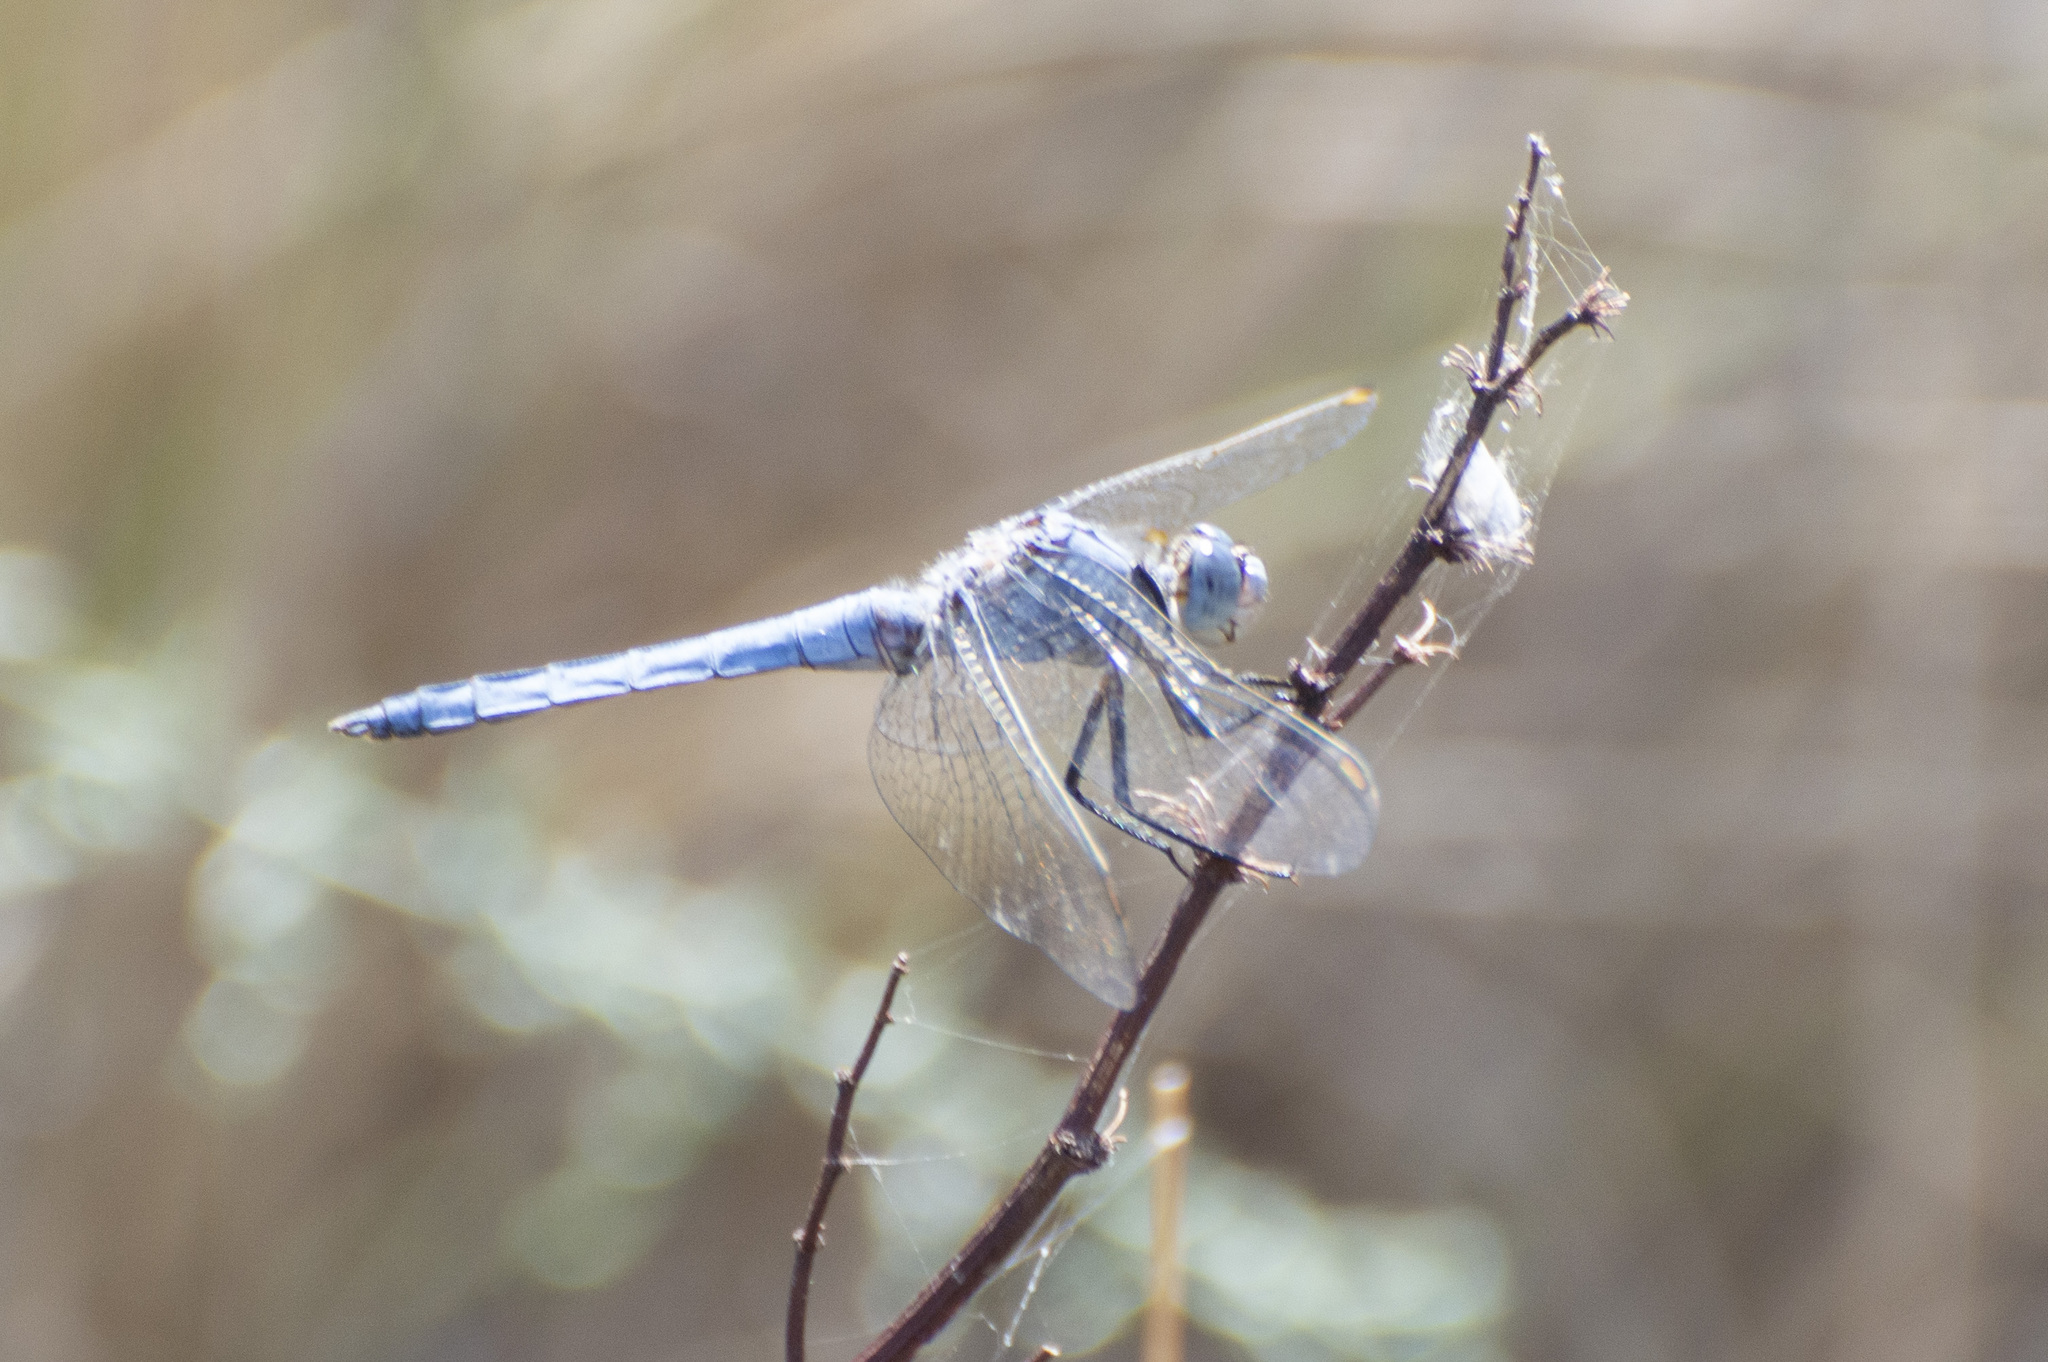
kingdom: Animalia
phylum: Arthropoda
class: Insecta
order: Odonata
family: Libellulidae
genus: Orthetrum
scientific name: Orthetrum brunneum
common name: Southern skimmer
